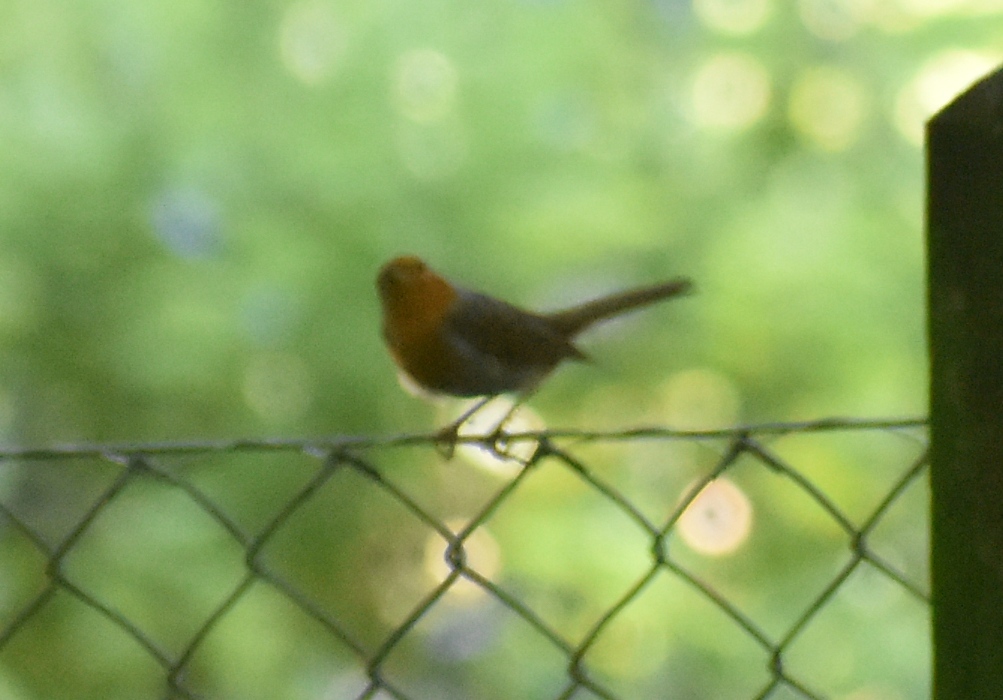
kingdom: Animalia
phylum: Chordata
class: Aves
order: Passeriformes
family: Muscicapidae
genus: Erithacus
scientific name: Erithacus rubecula
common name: European robin
